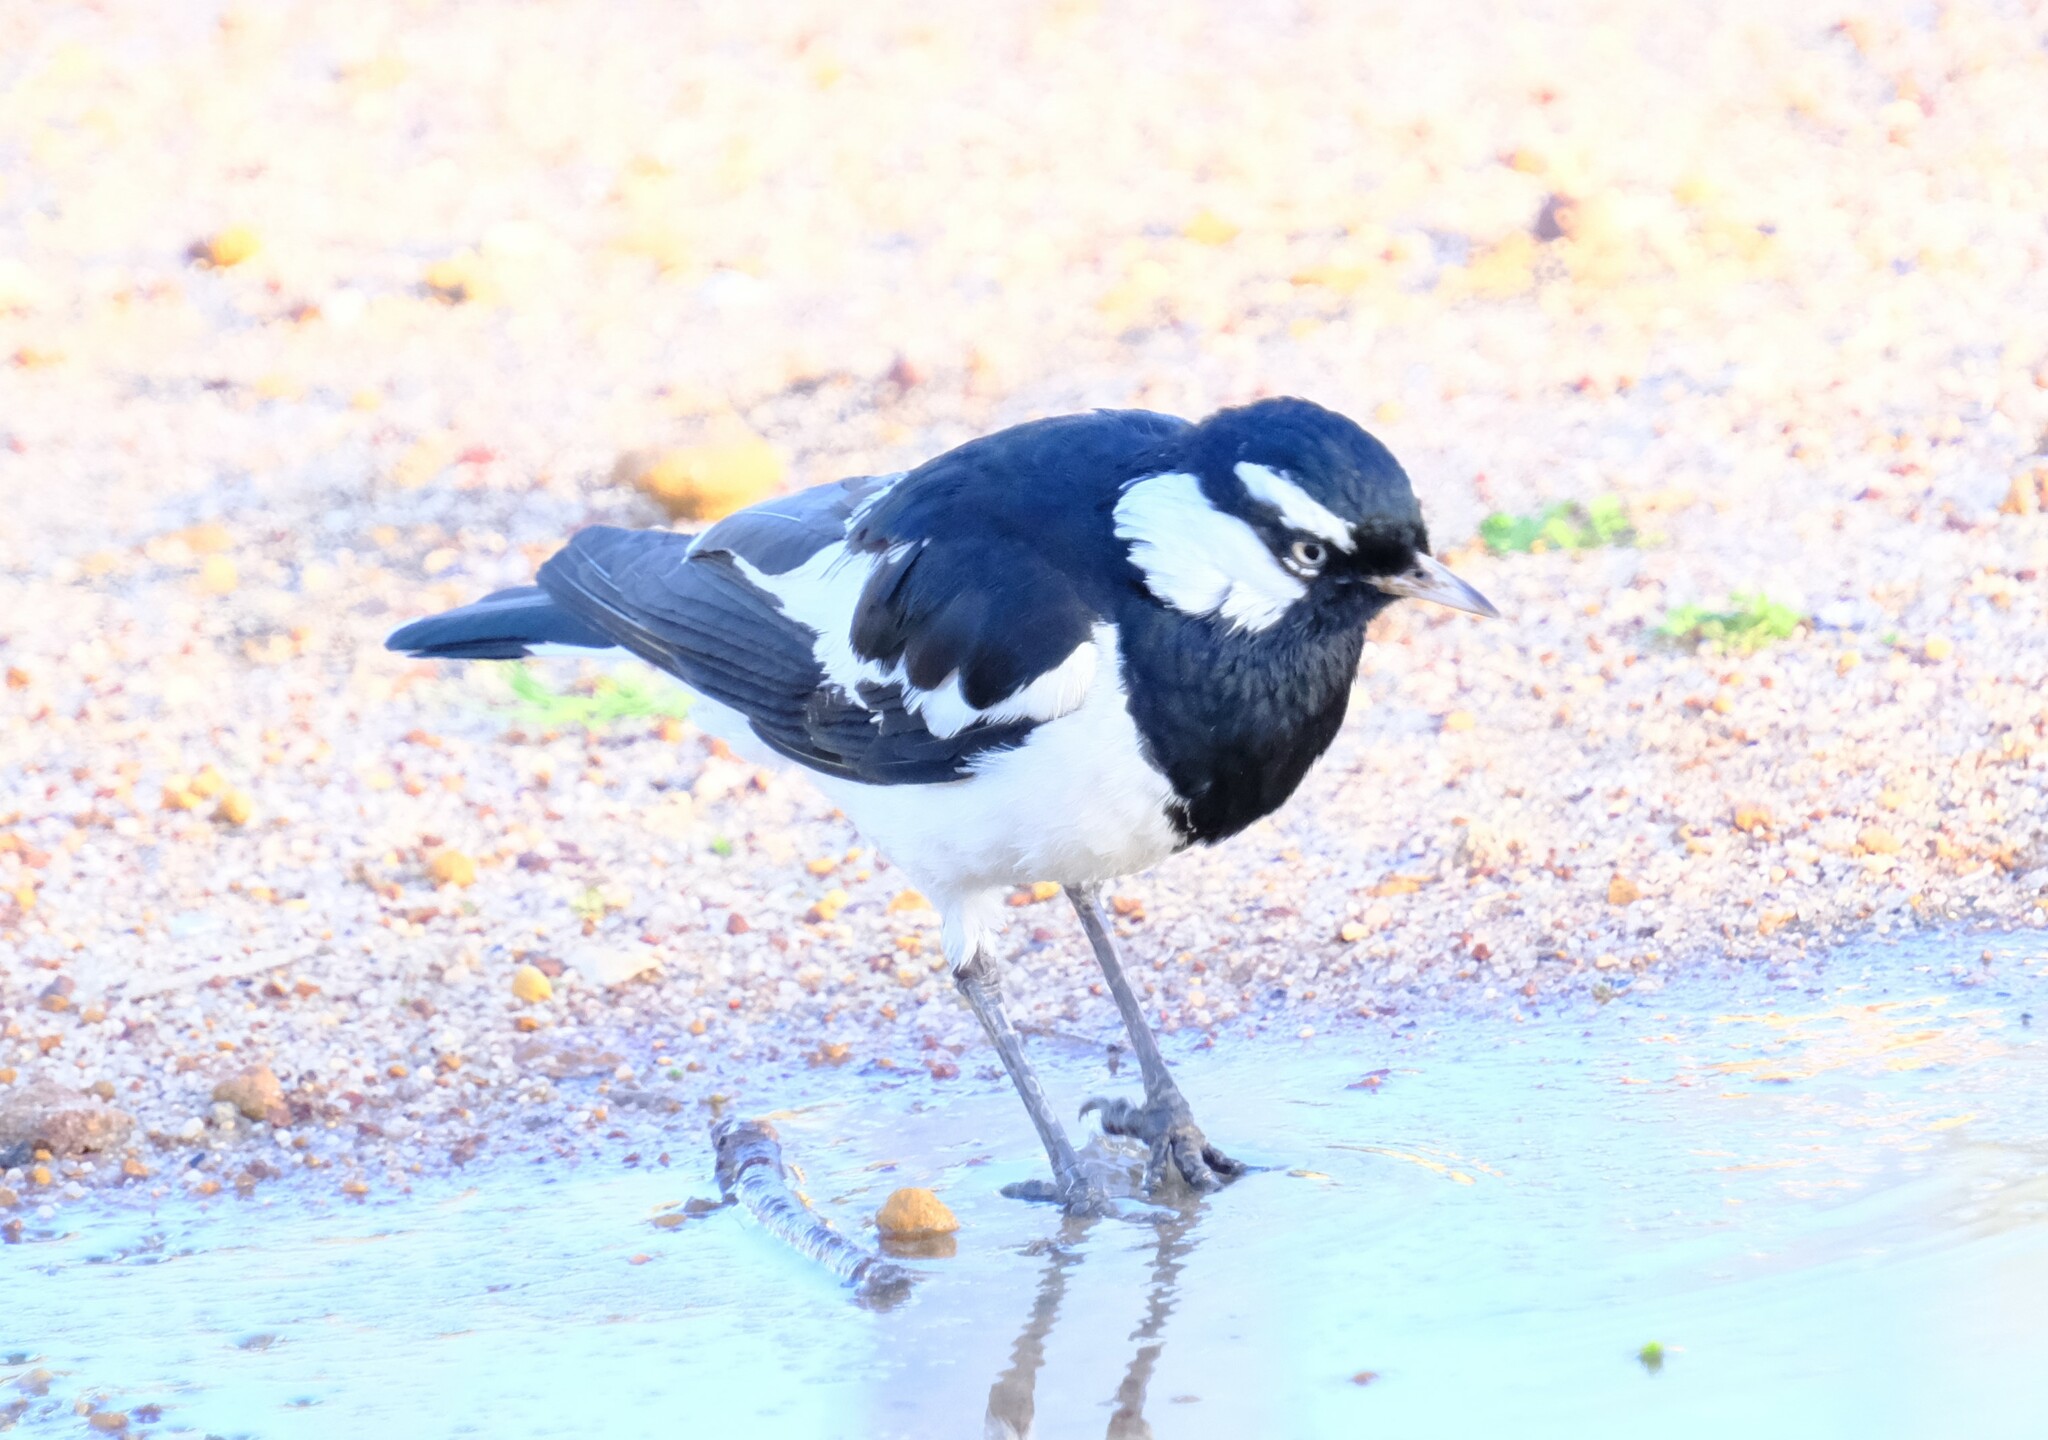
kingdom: Animalia
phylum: Chordata
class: Aves
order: Passeriformes
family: Monarchidae
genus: Grallina
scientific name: Grallina cyanoleuca
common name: Magpie-lark
